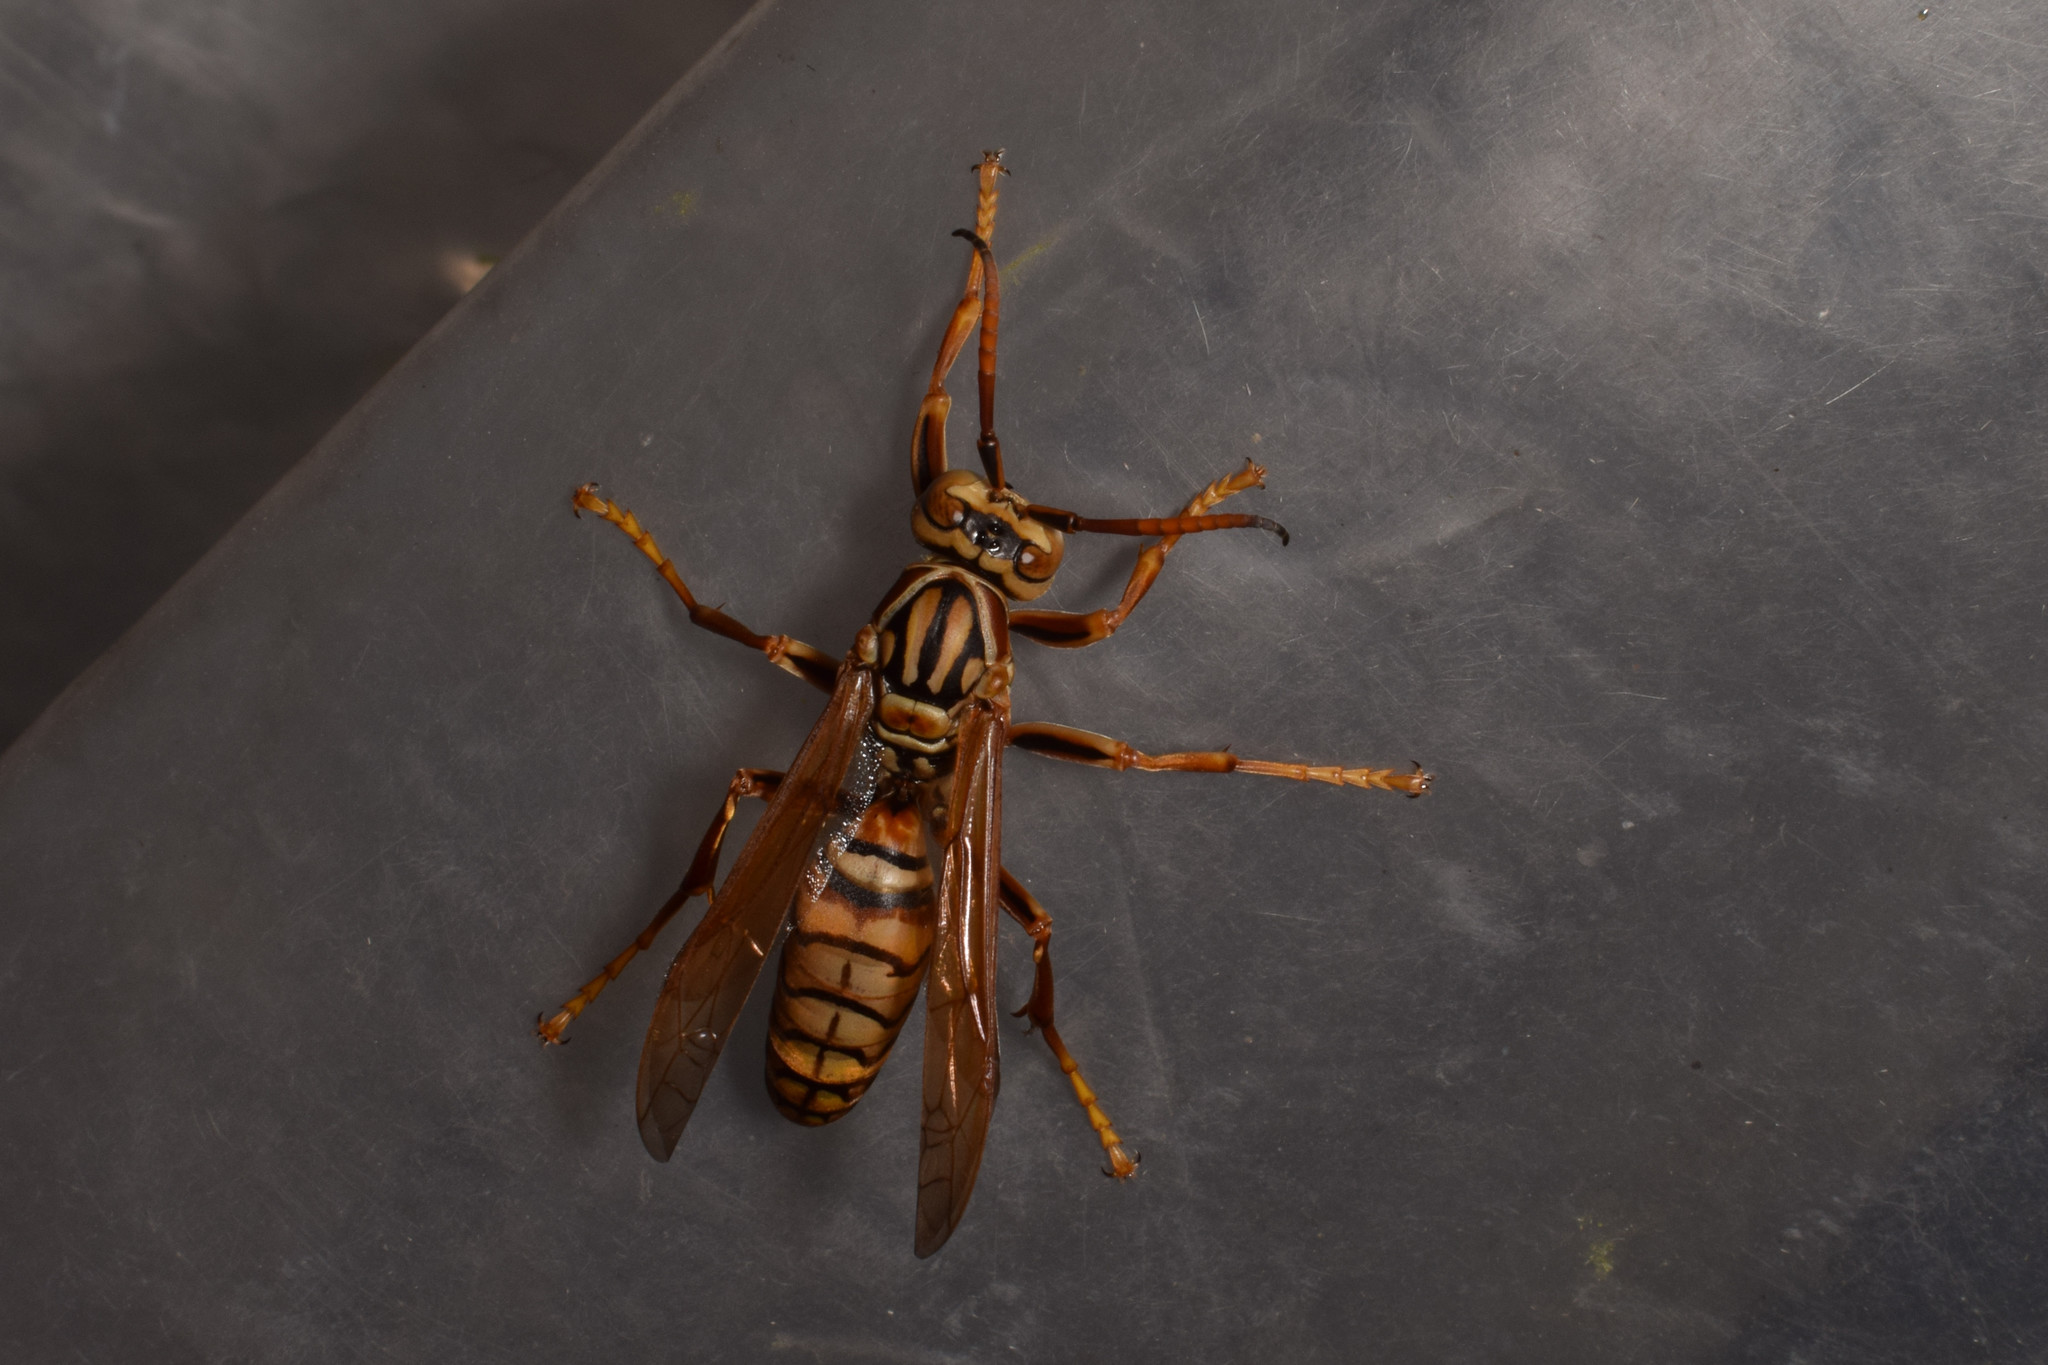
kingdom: Animalia
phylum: Arthropoda
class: Insecta
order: Hymenoptera
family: Eumenidae
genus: Polistes
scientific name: Polistes rothneyi
